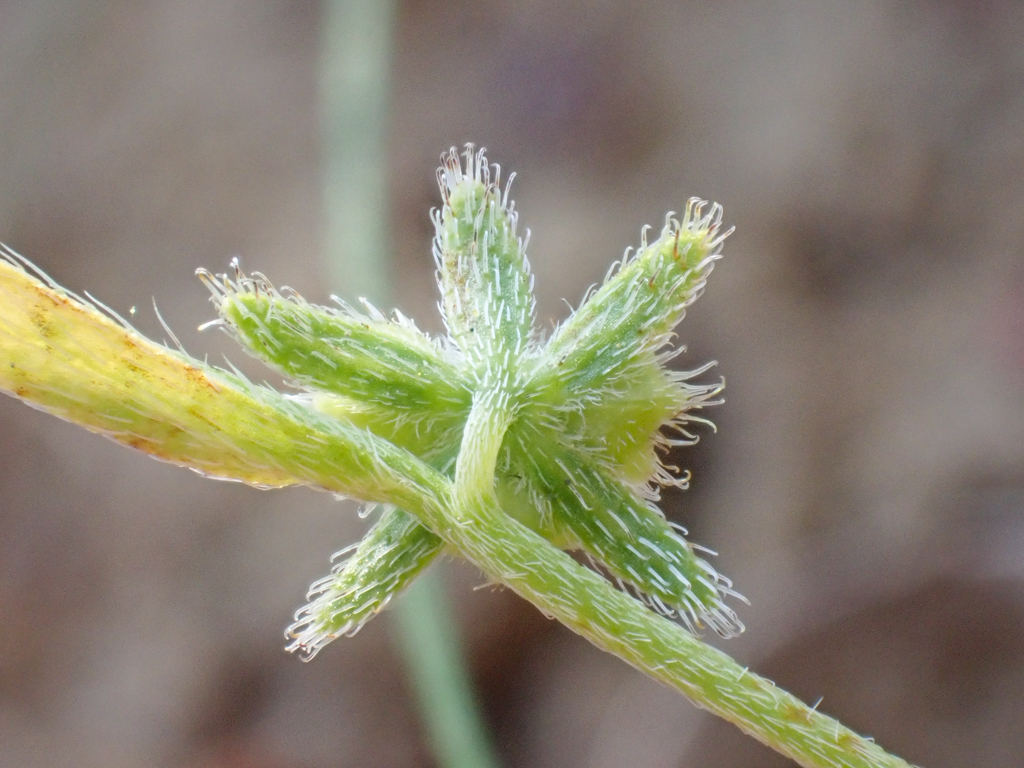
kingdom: Plantae
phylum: Tracheophyta
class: Magnoliopsida
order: Boraginales
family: Boraginaceae
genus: Pectocarya
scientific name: Pectocarya pusilla
